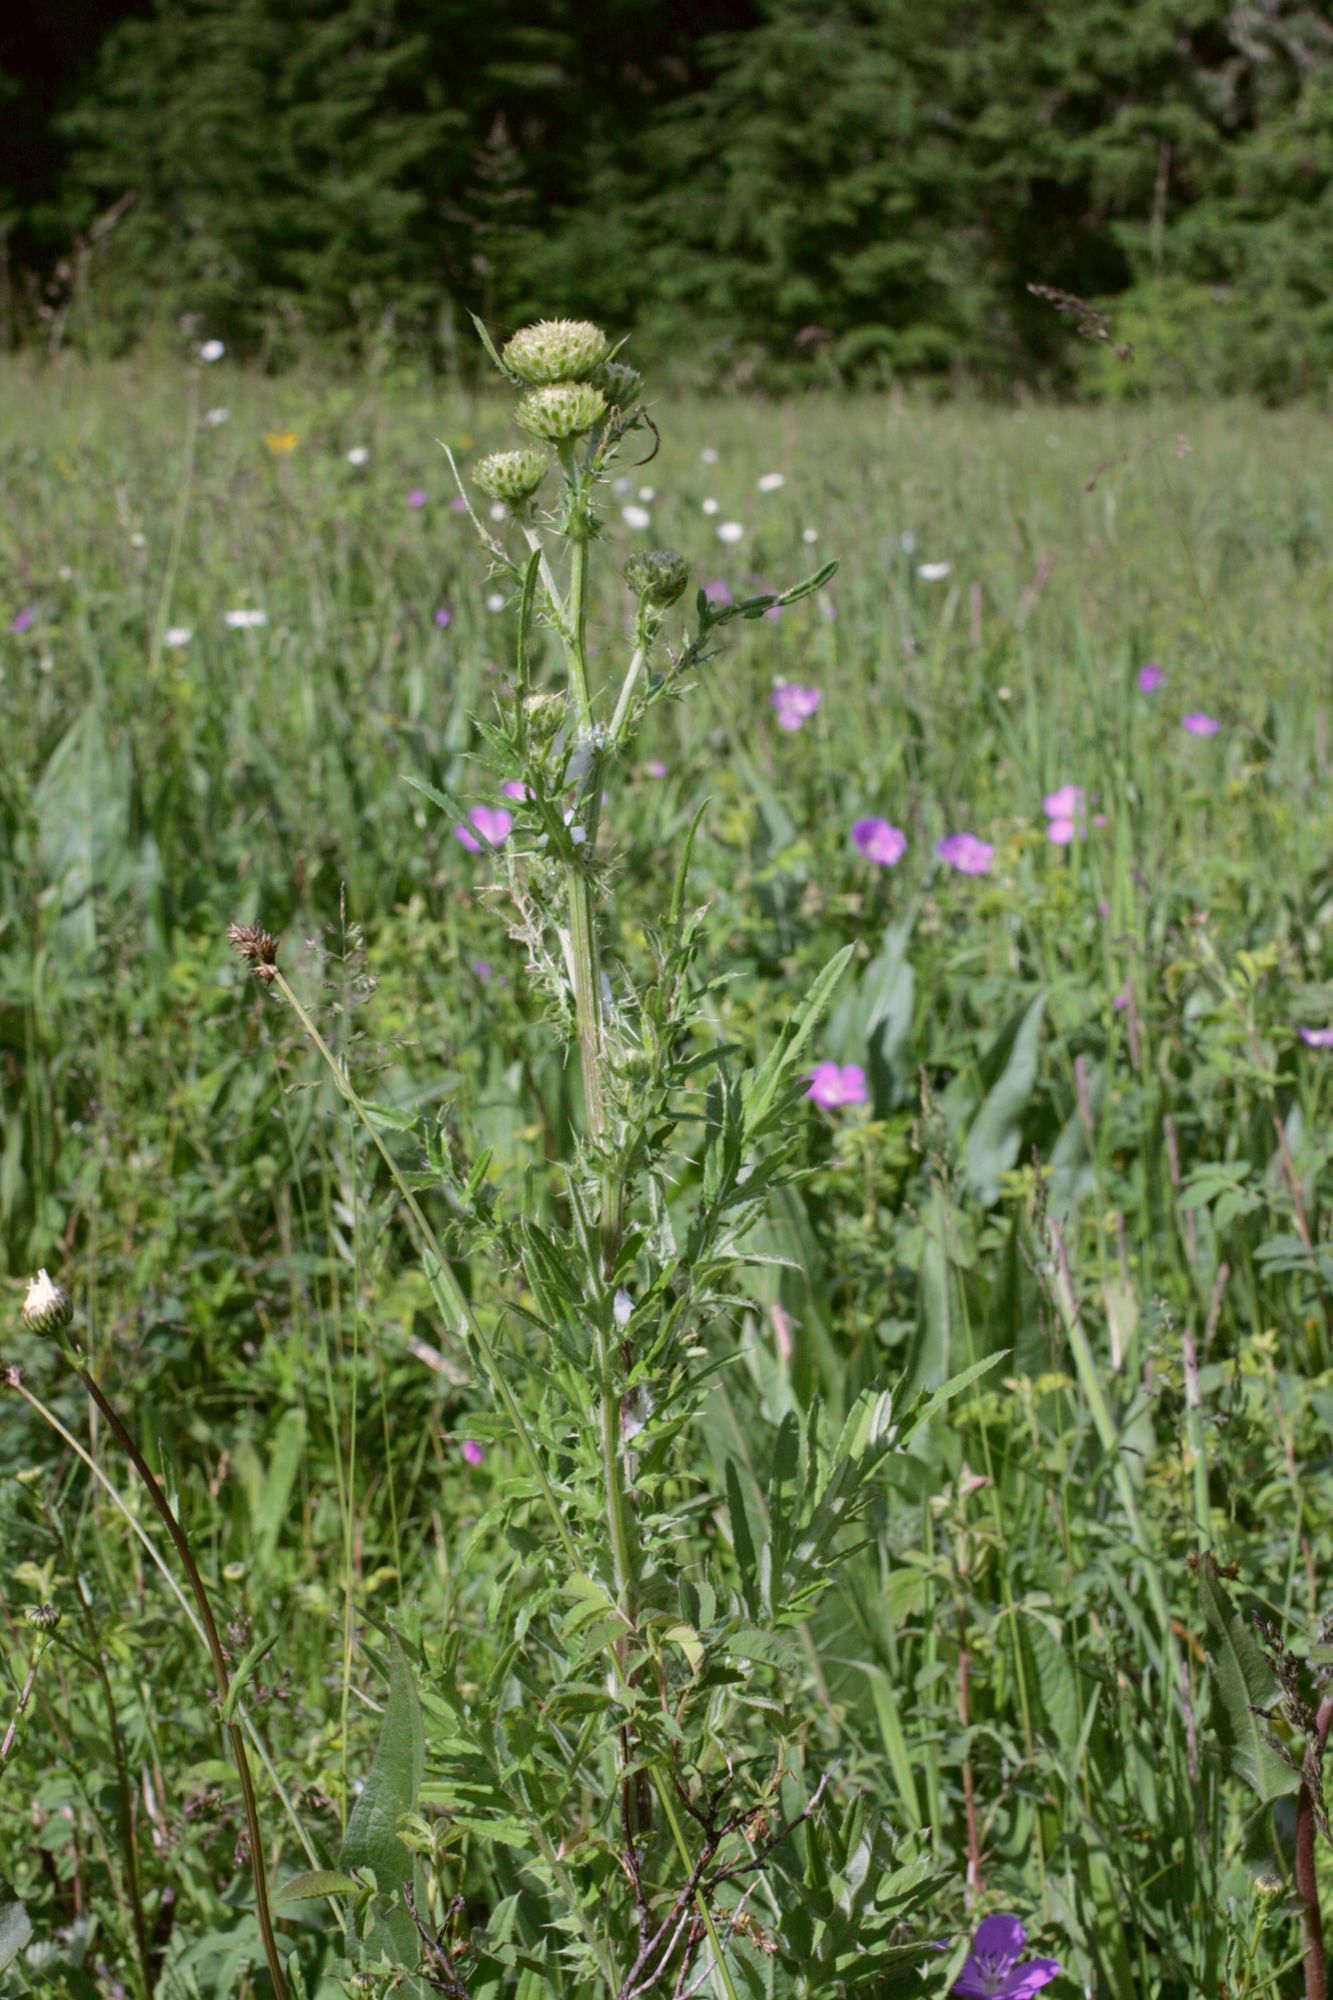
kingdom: Plantae
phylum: Tracheophyta
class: Magnoliopsida
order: Asterales
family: Asteraceae
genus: Cirsium
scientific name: Cirsium remotifolium
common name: Remote-leaf thistle
